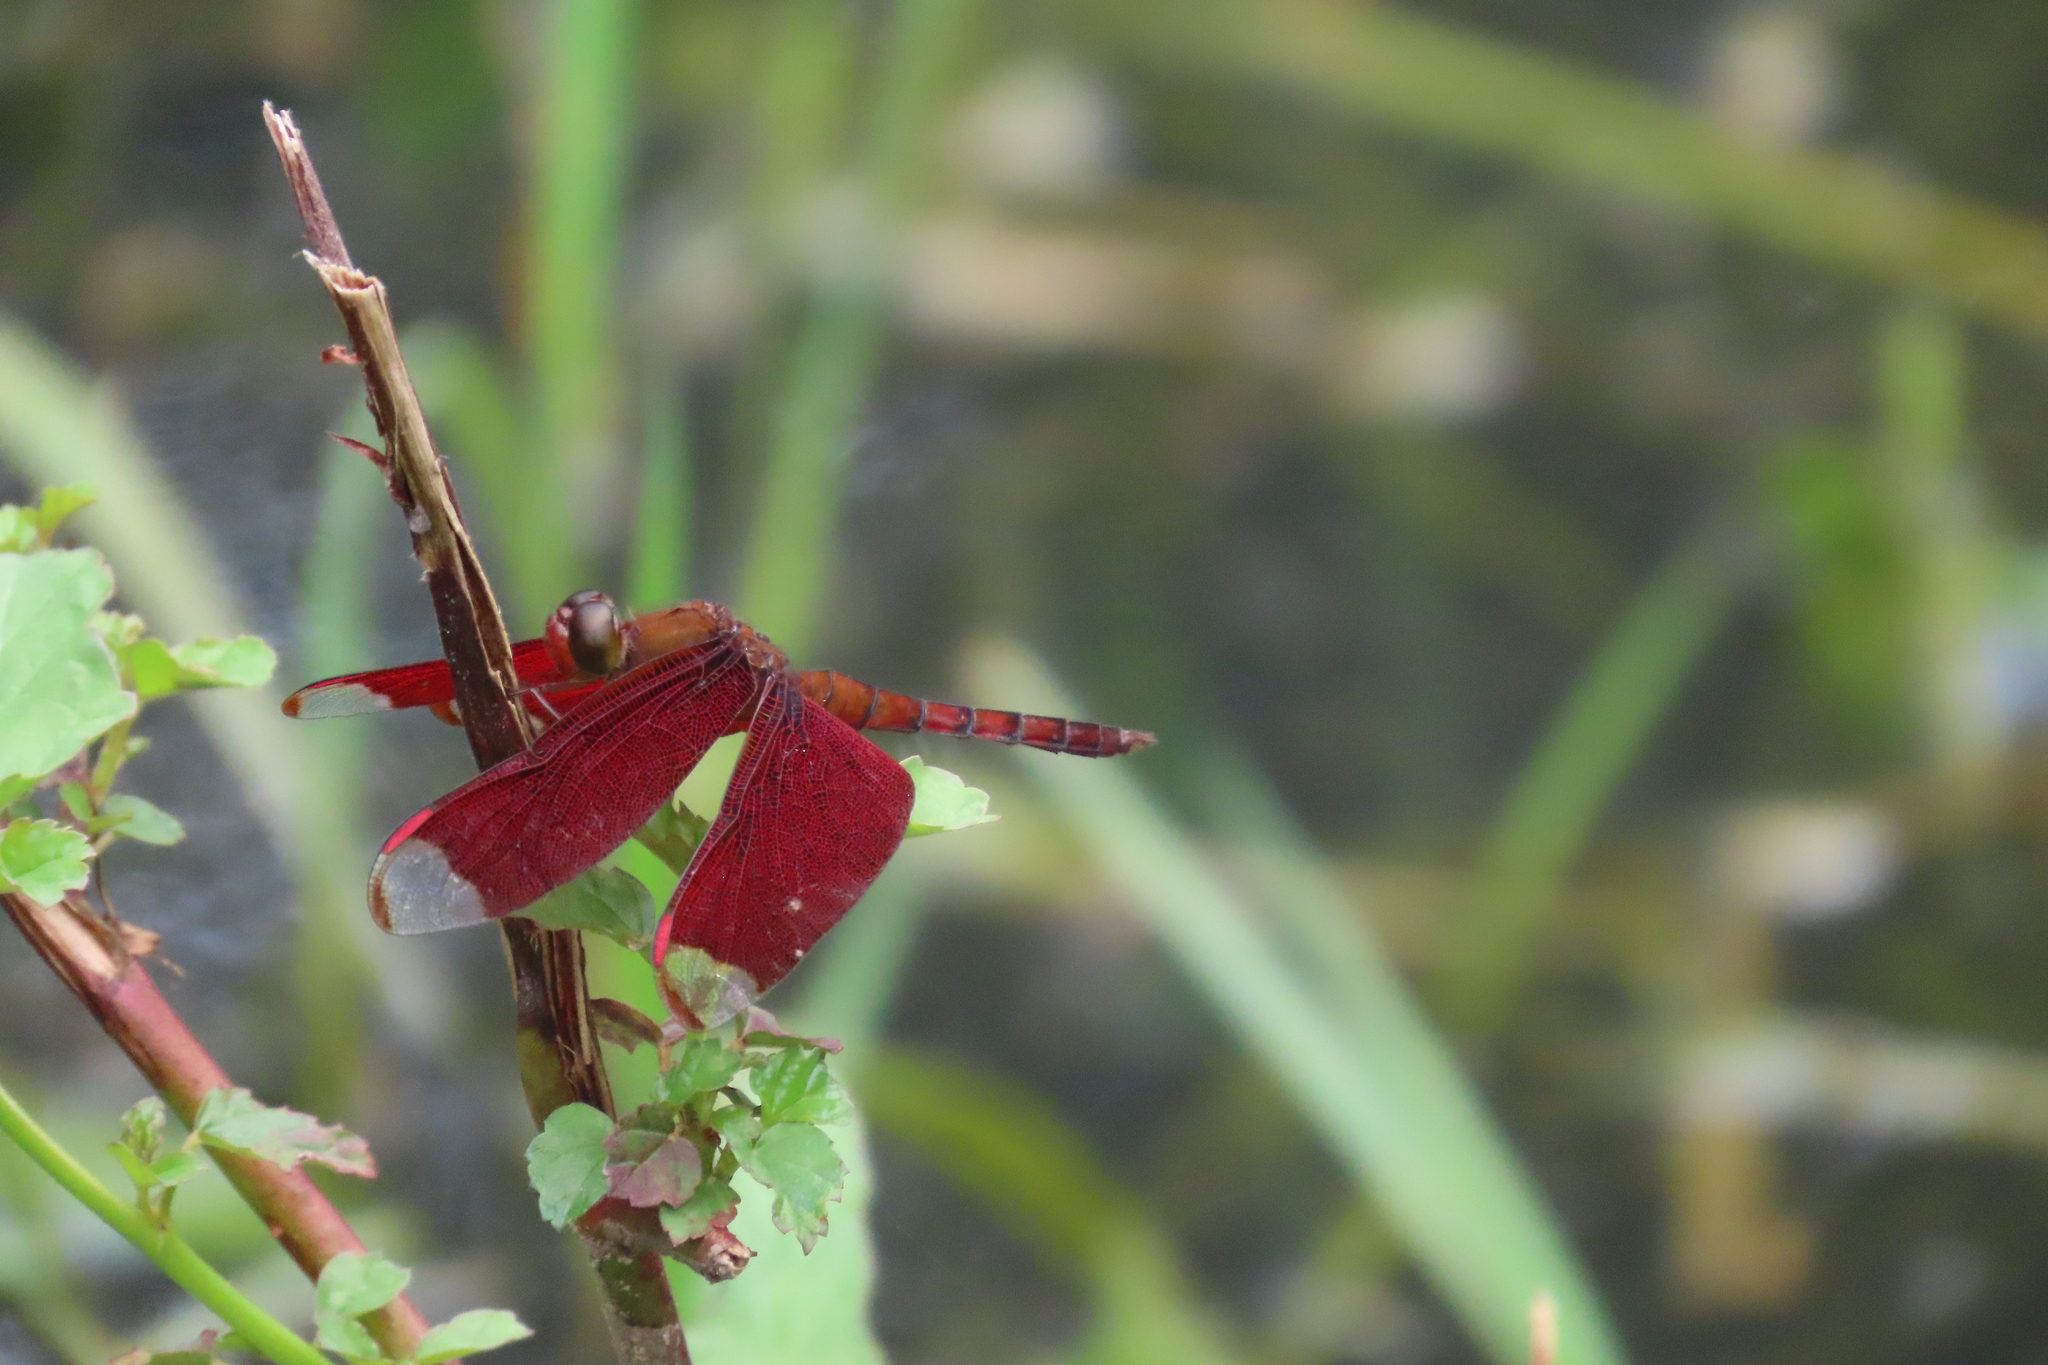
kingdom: Animalia
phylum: Arthropoda
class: Insecta
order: Odonata
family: Libellulidae
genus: Neurothemis
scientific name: Neurothemis fulvia
